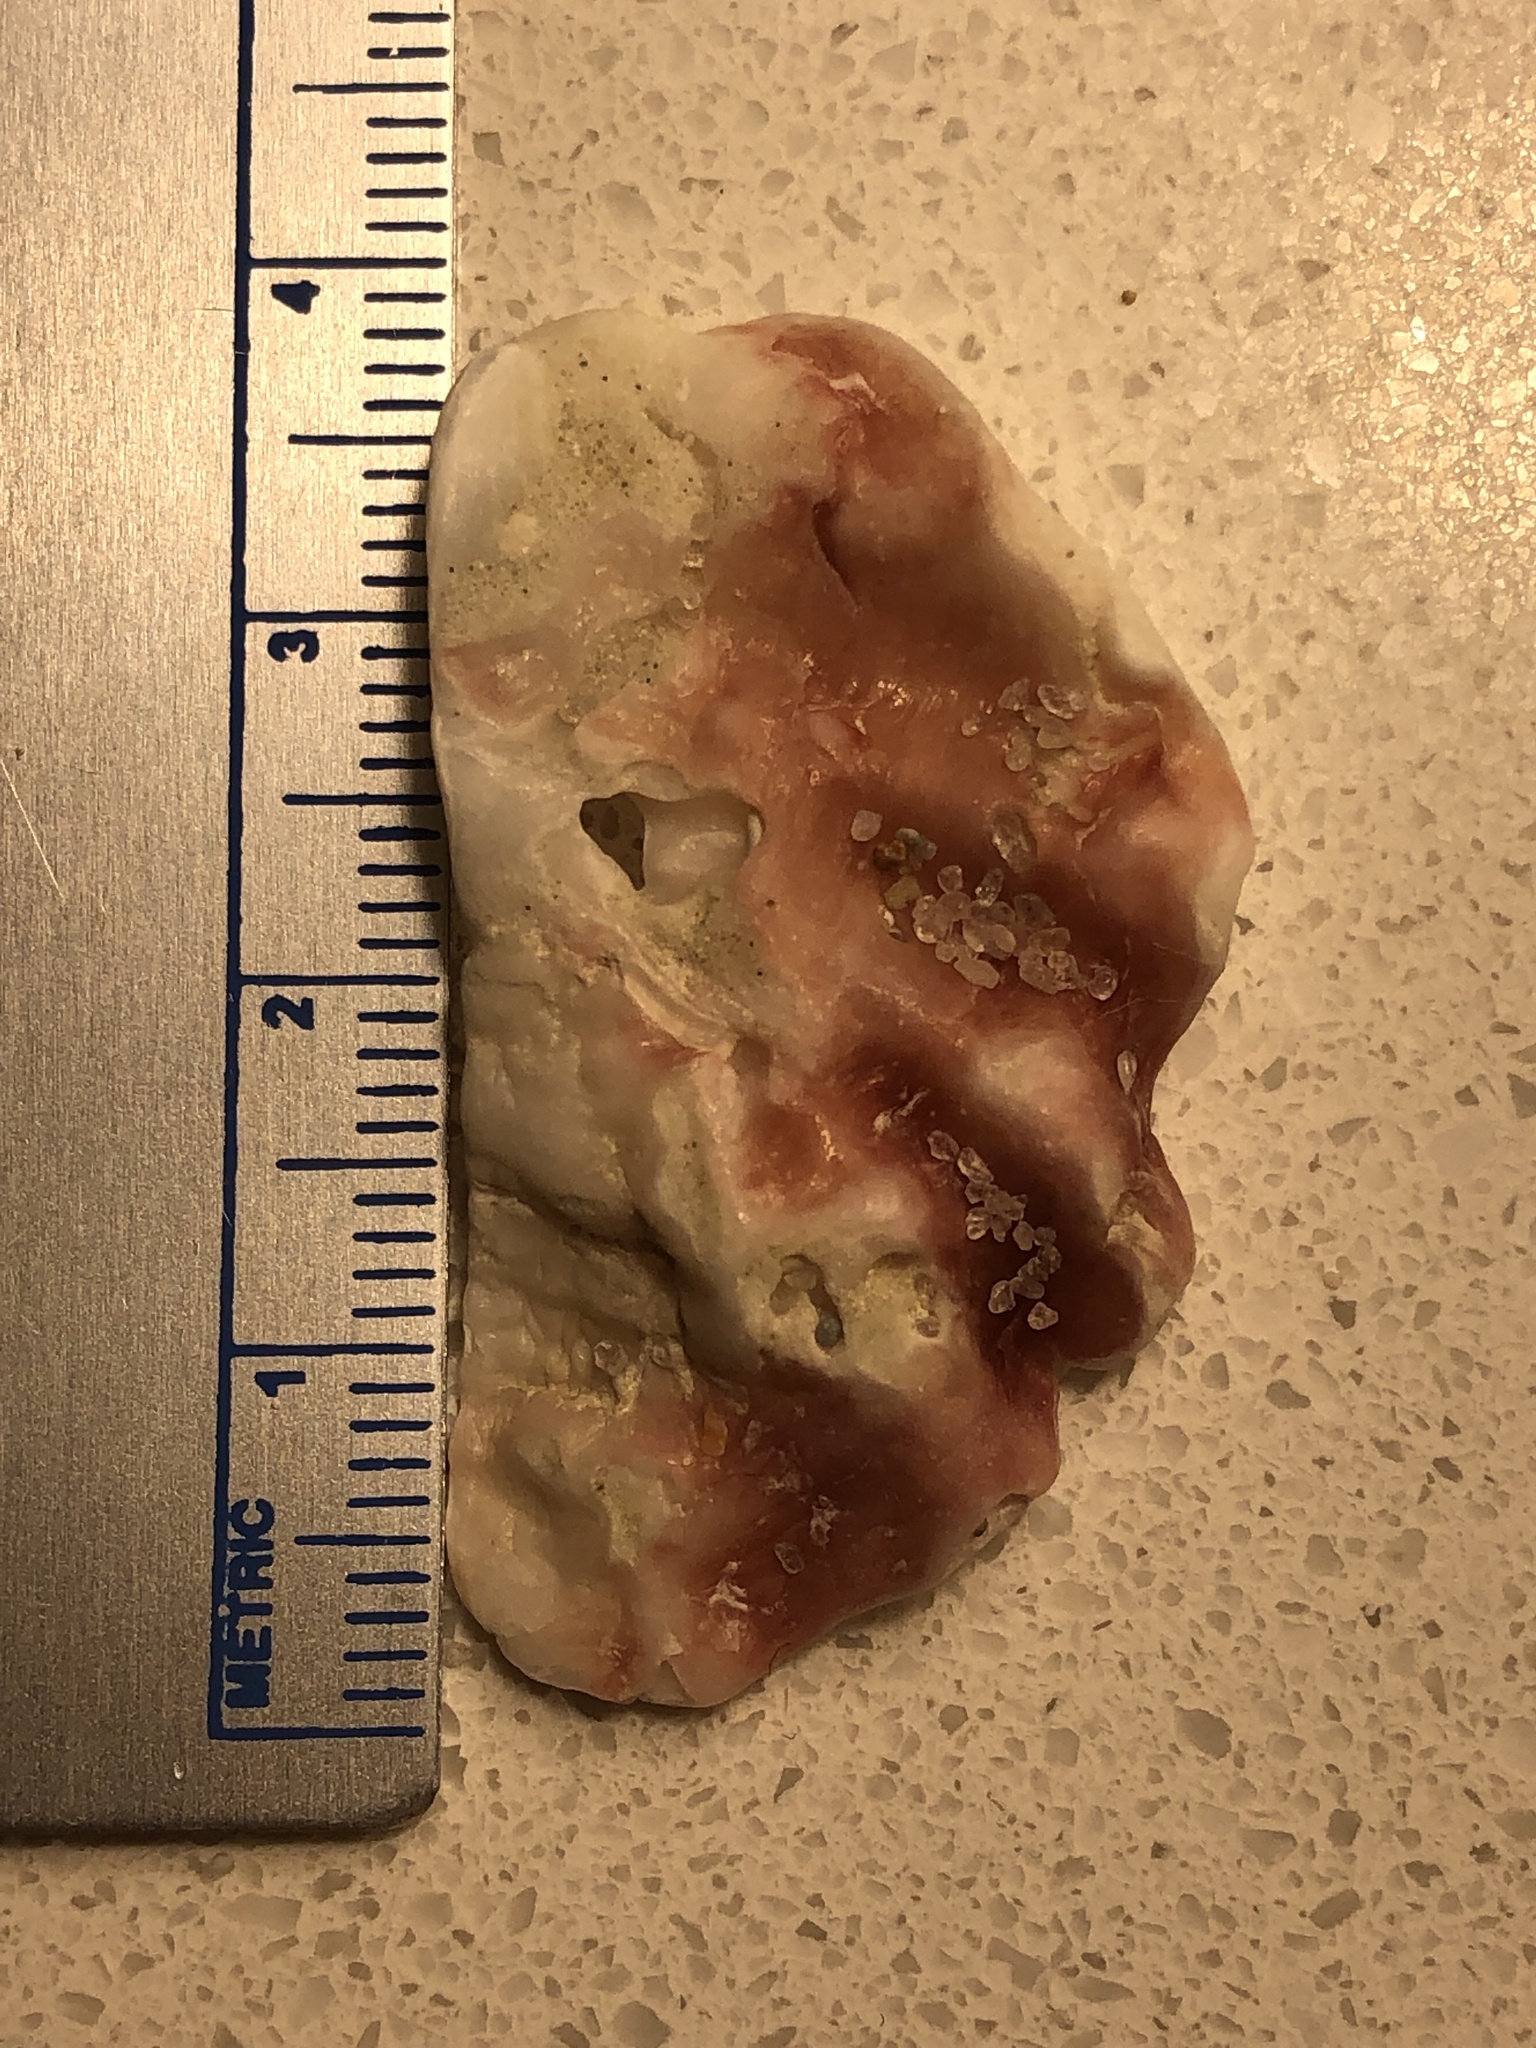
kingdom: Animalia
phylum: Mollusca
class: Bivalvia
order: Ostreida
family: Ostreidae
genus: Dendostrea
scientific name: Dendostrea frons
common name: Frond oyster
